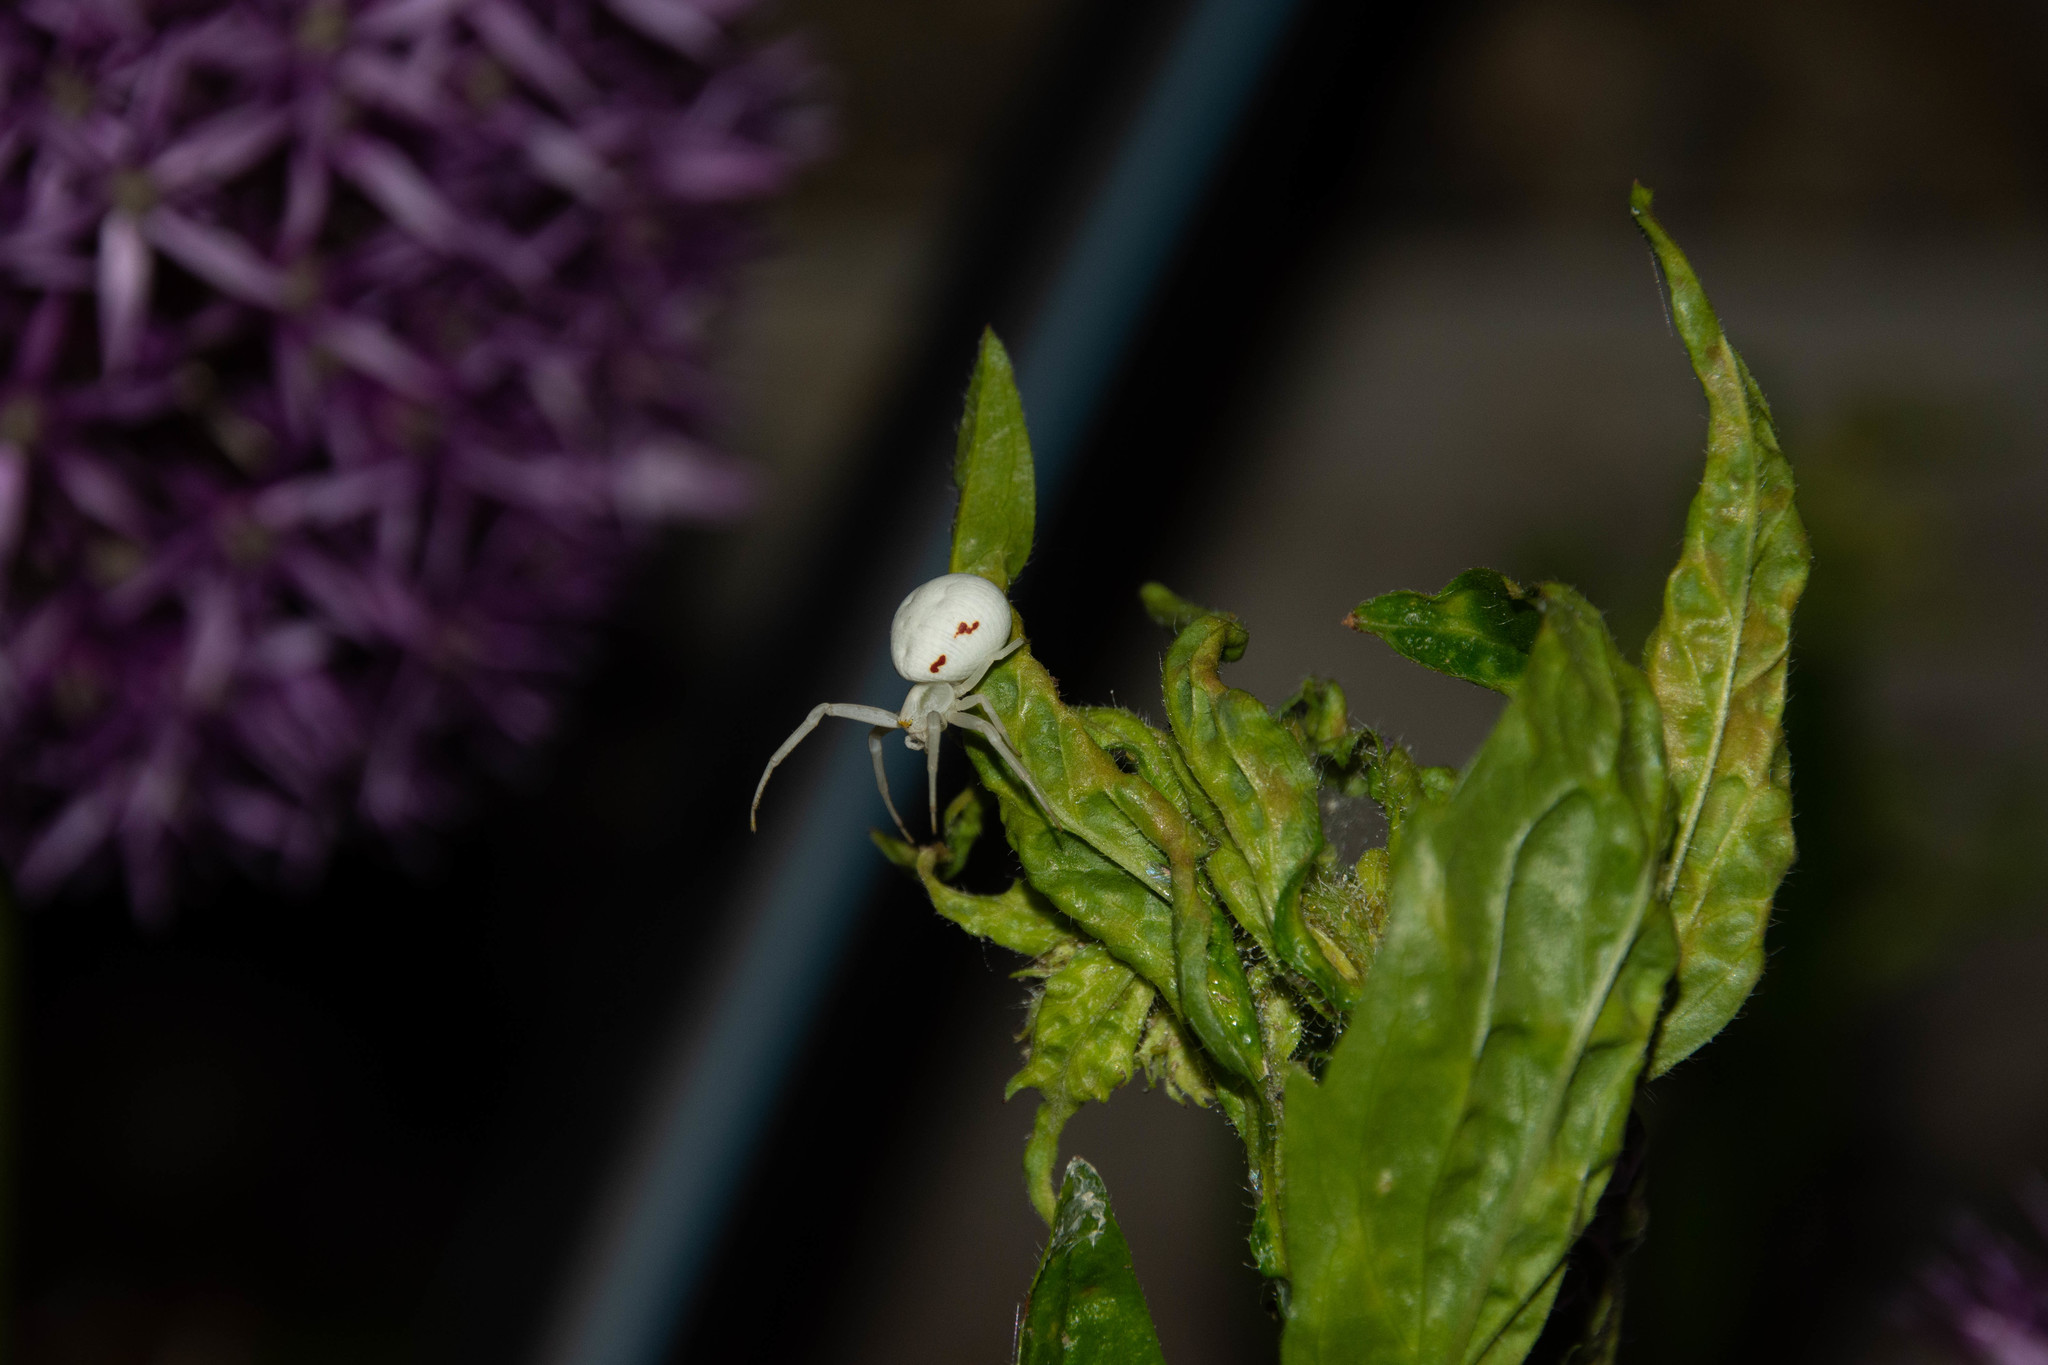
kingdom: Animalia
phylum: Arthropoda
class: Arachnida
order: Araneae
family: Thomisidae
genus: Misumena
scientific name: Misumena vatia
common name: Goldenrod crab spider
